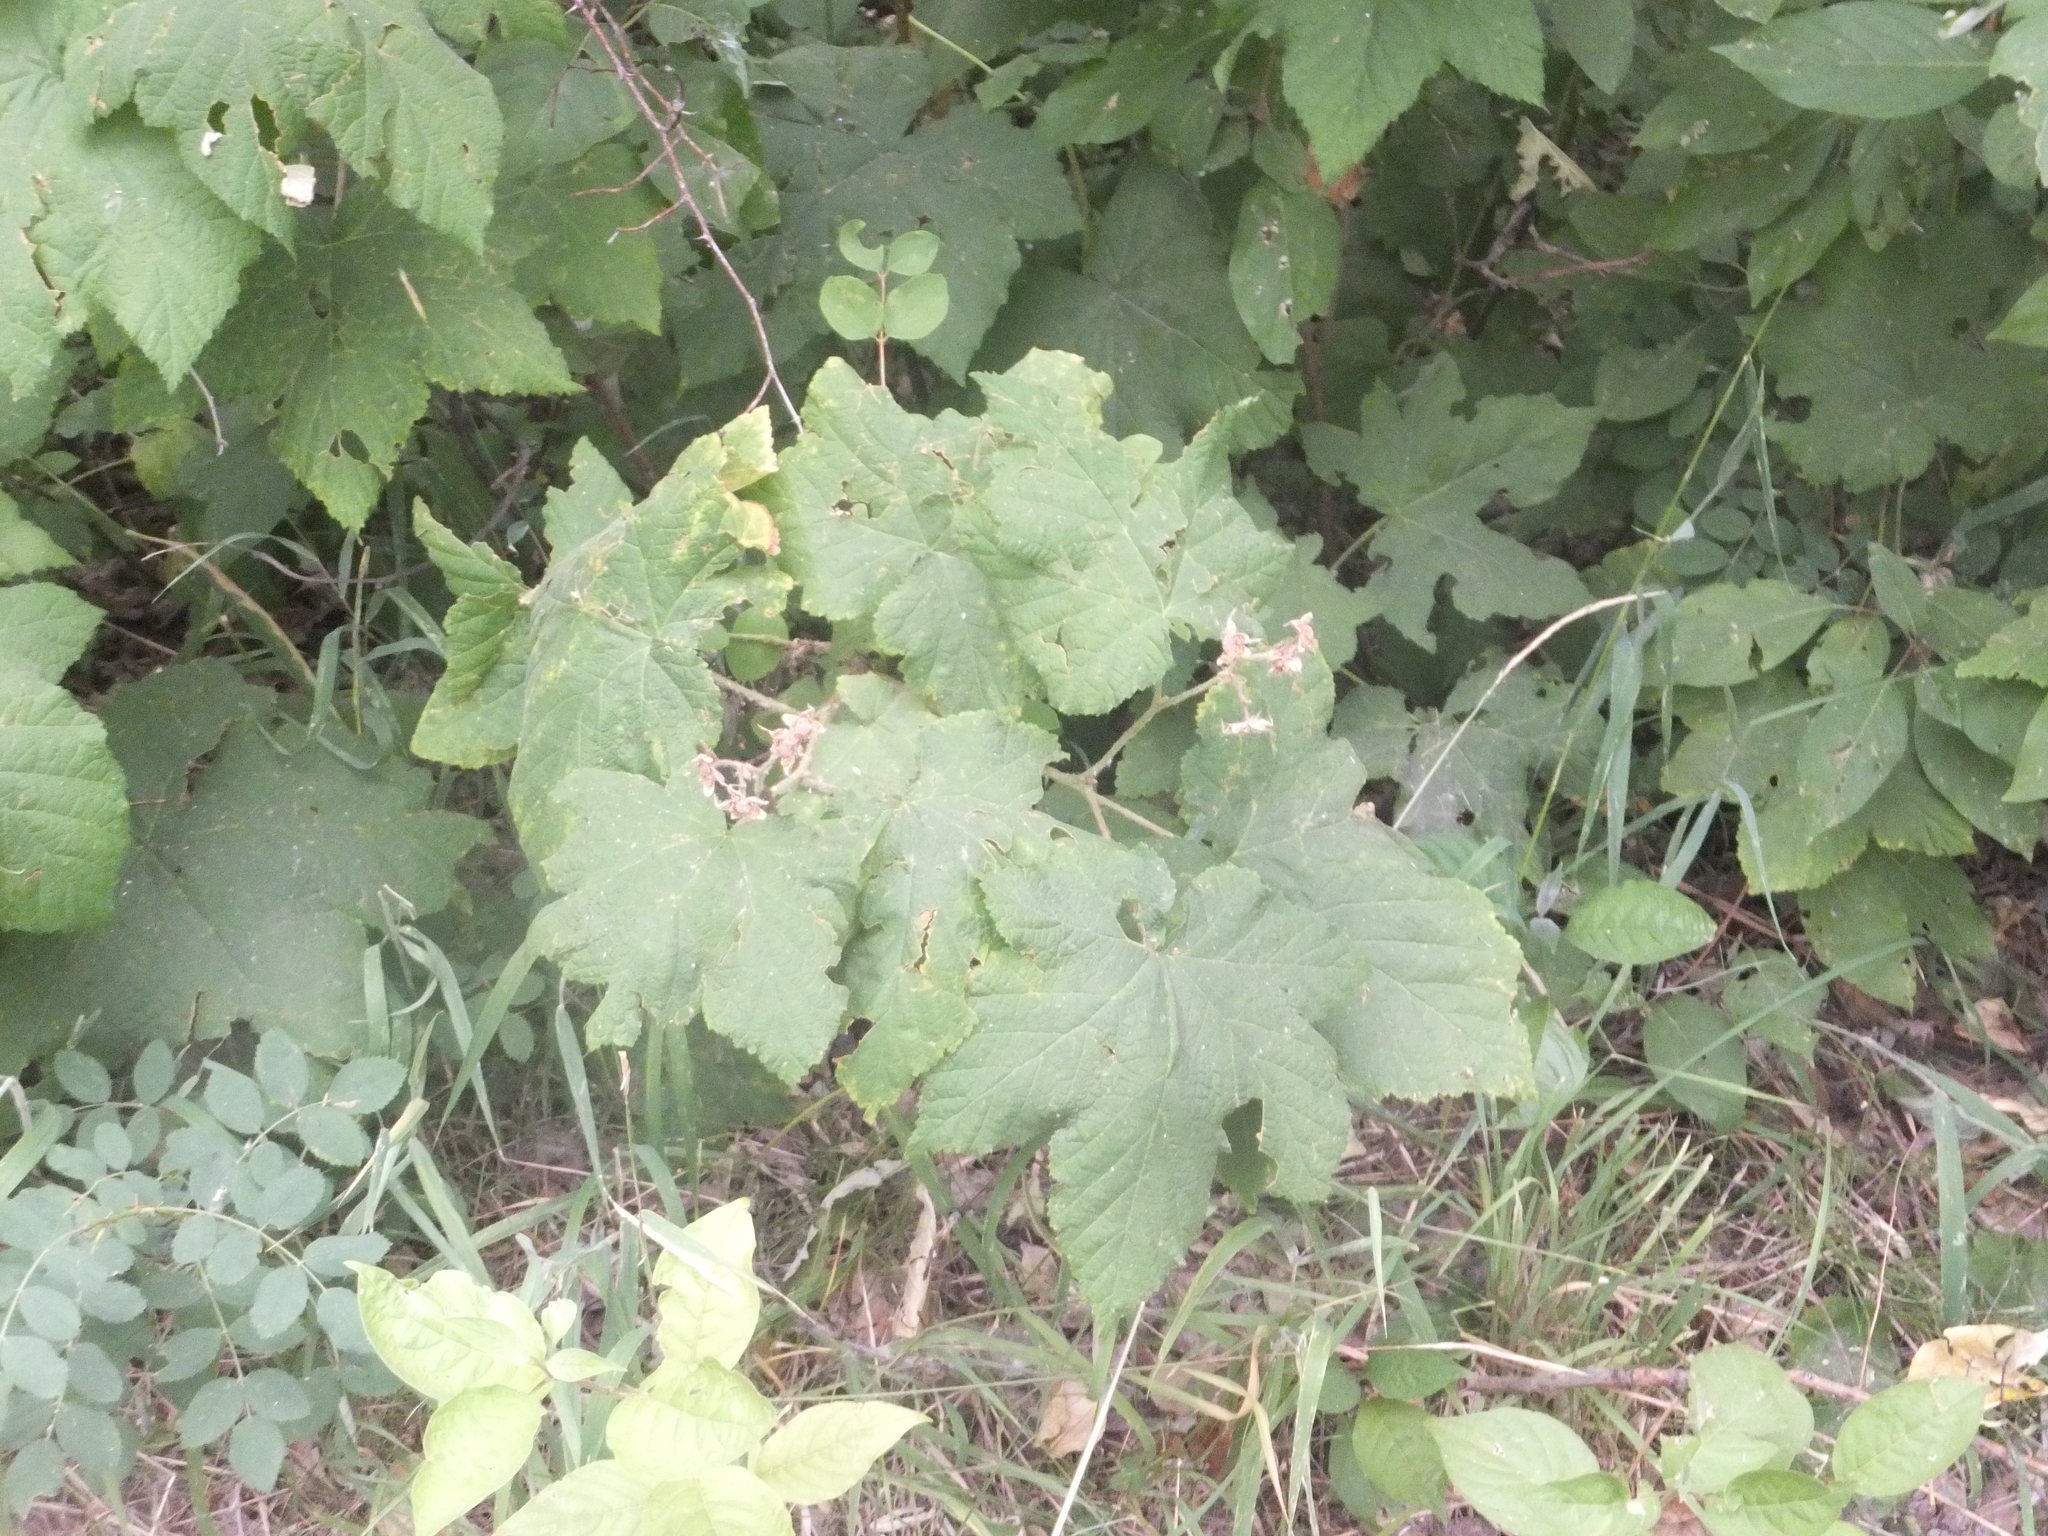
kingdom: Plantae
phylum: Tracheophyta
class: Magnoliopsida
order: Rosales
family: Rosaceae
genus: Rubus
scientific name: Rubus parviflorus
